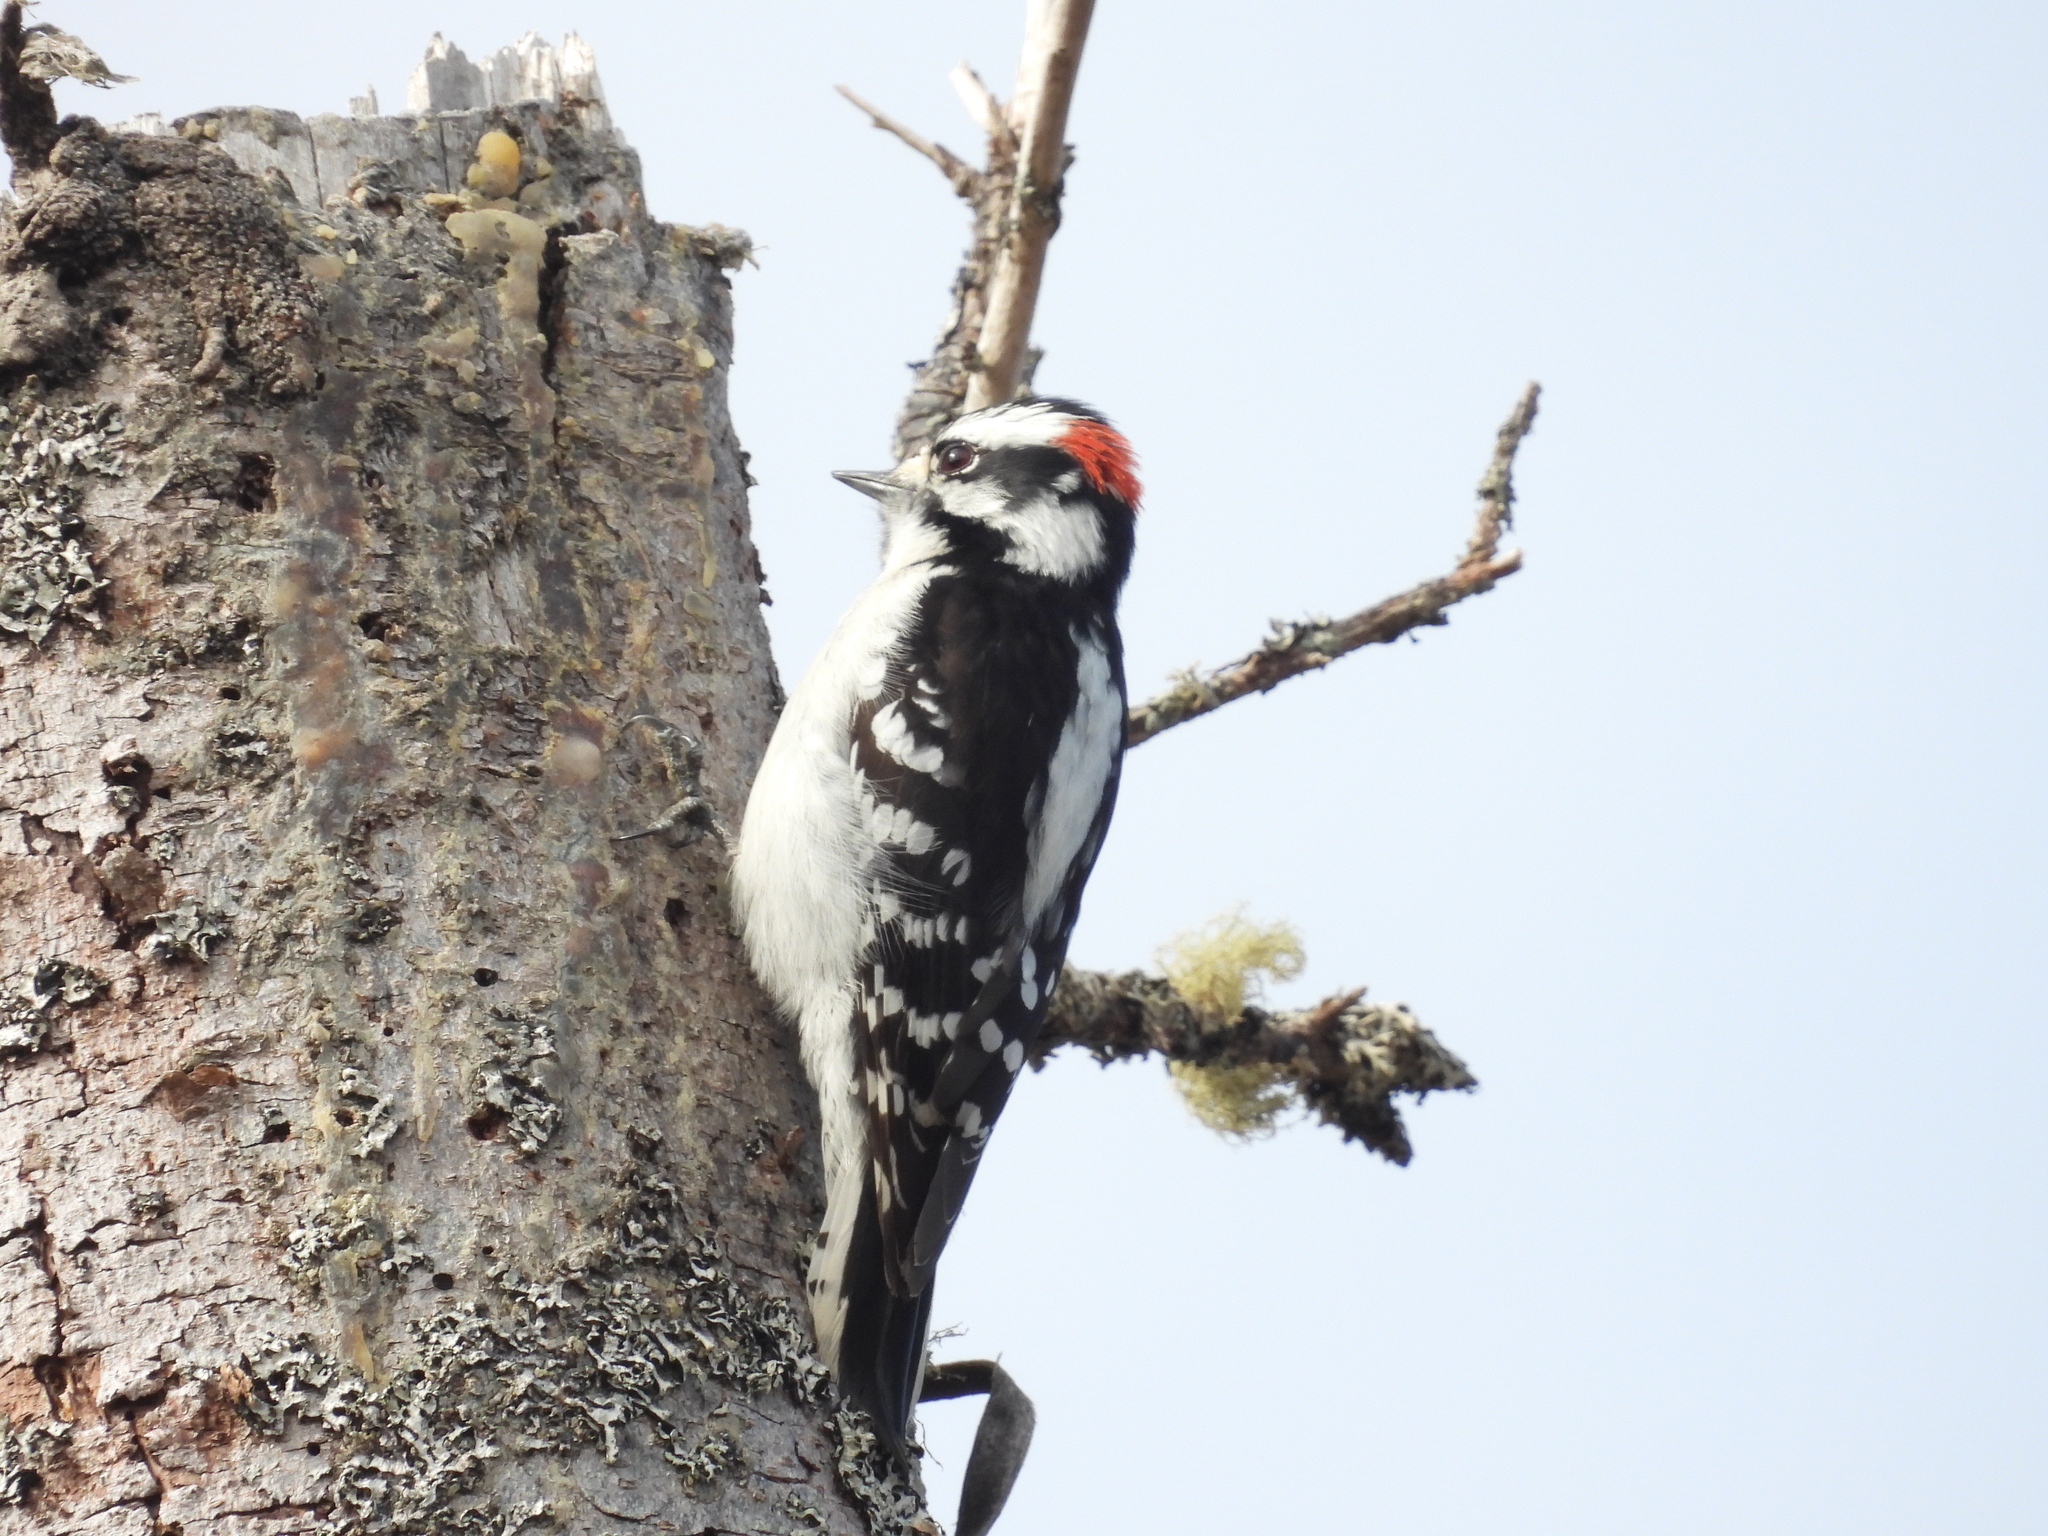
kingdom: Animalia
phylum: Chordata
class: Aves
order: Piciformes
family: Picidae
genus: Dryobates
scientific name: Dryobates pubescens
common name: Downy woodpecker
